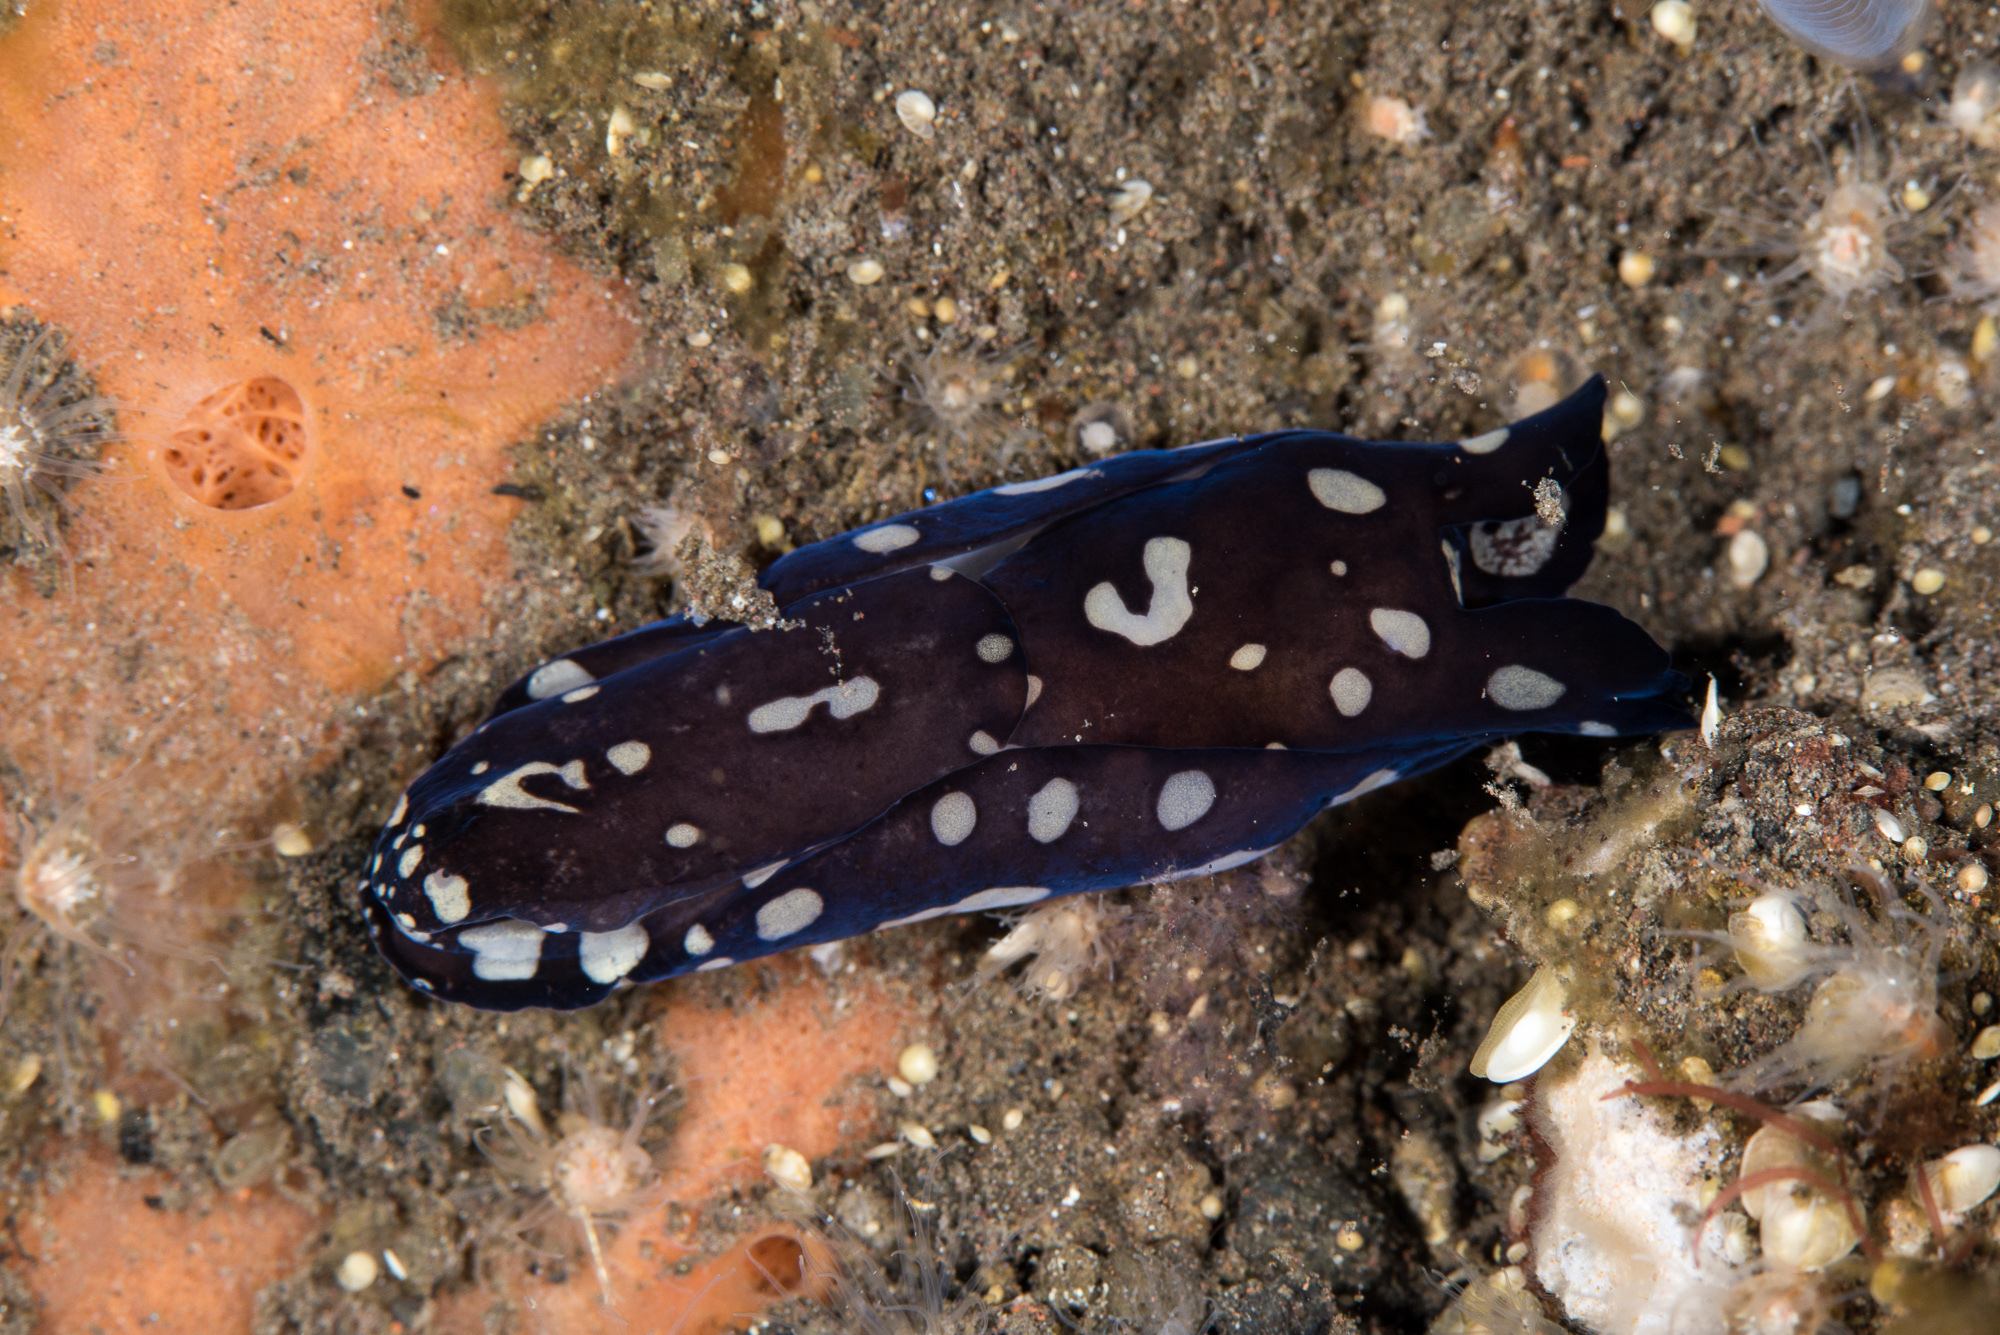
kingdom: Animalia
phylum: Mollusca
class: Gastropoda
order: Cephalaspidea
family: Aglajidae
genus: Tubulophilinopsis
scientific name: Tubulophilinopsis pilsbryi
